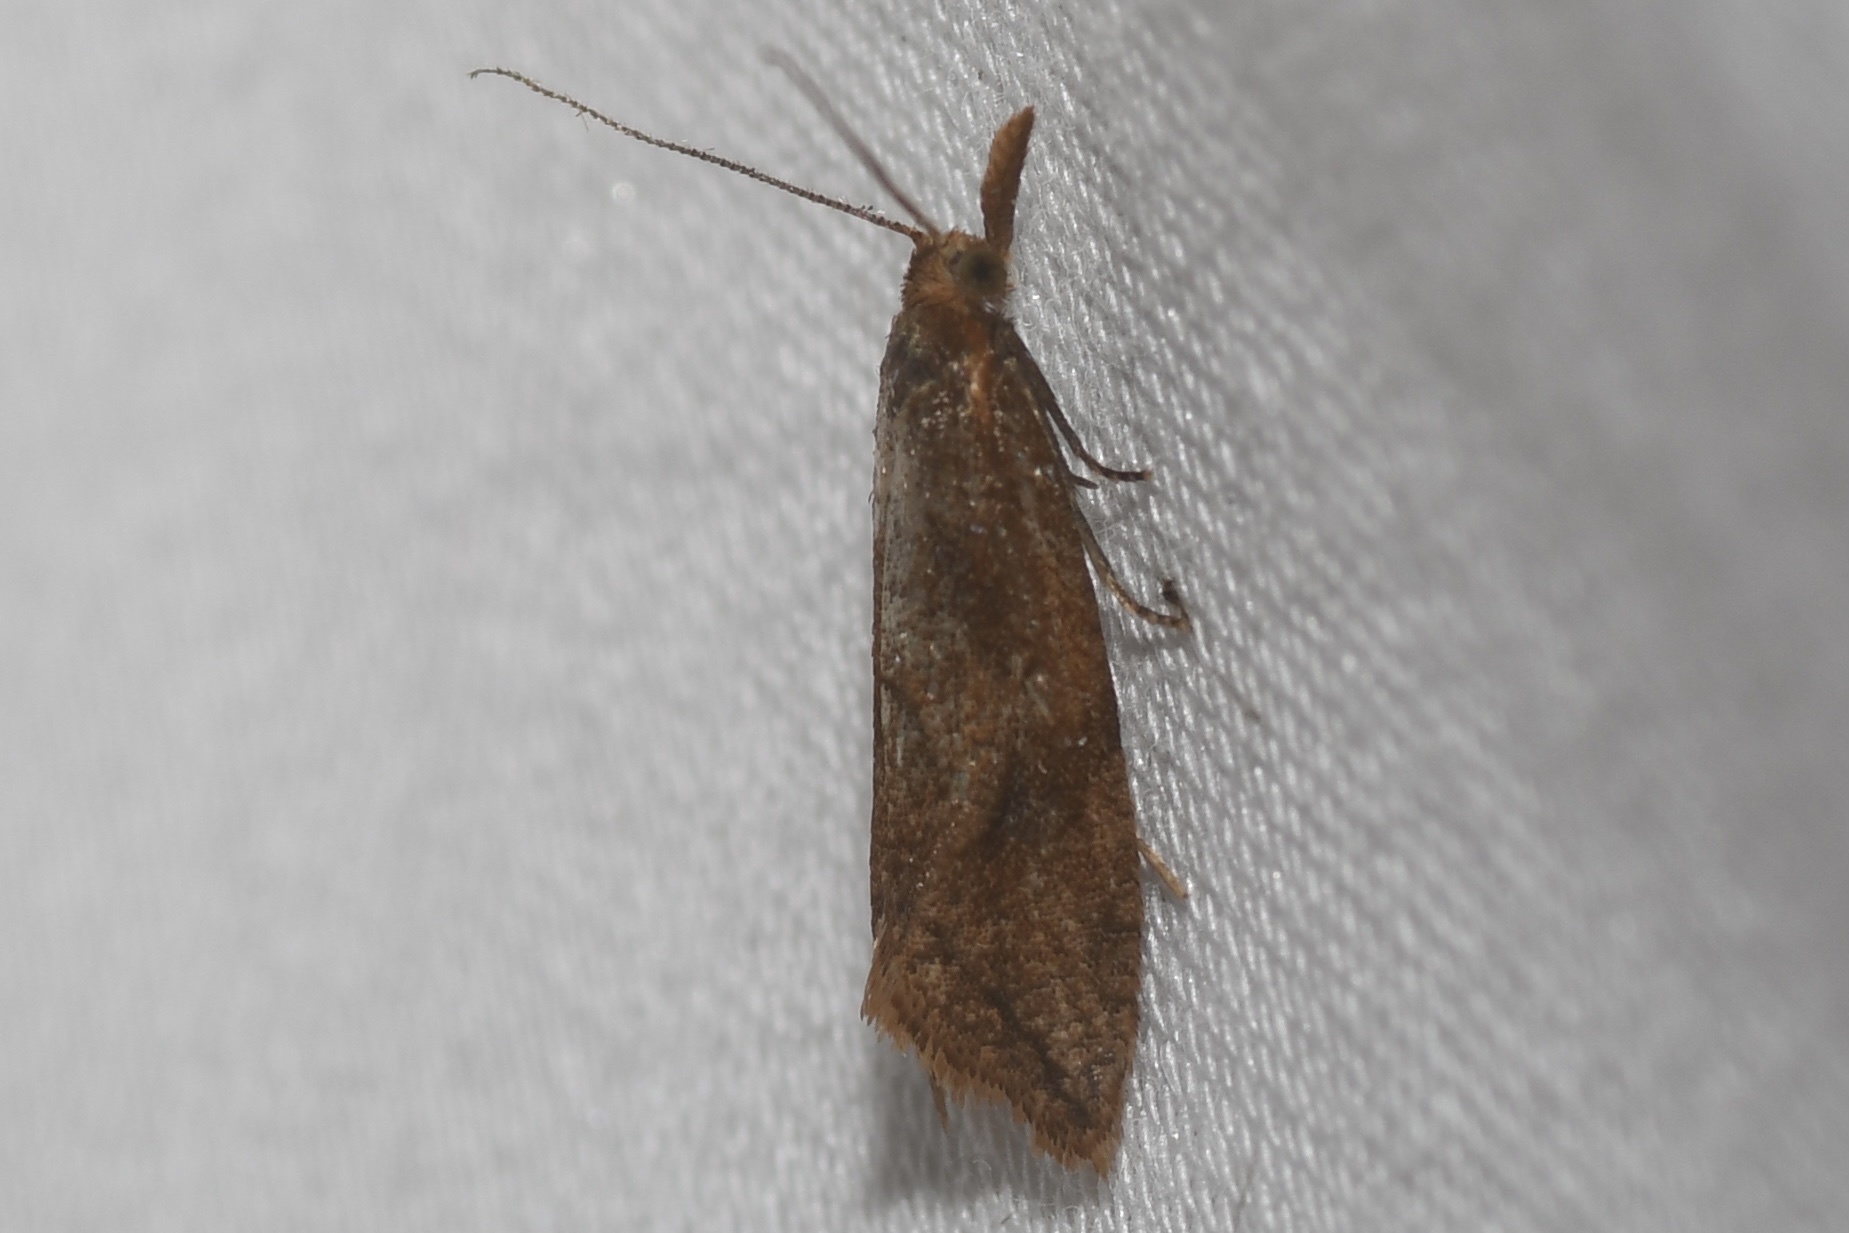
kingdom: Animalia
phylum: Arthropoda
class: Insecta
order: Lepidoptera
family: Tortricidae
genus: Aethes
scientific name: Aethes biscana
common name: Reddish aethes
